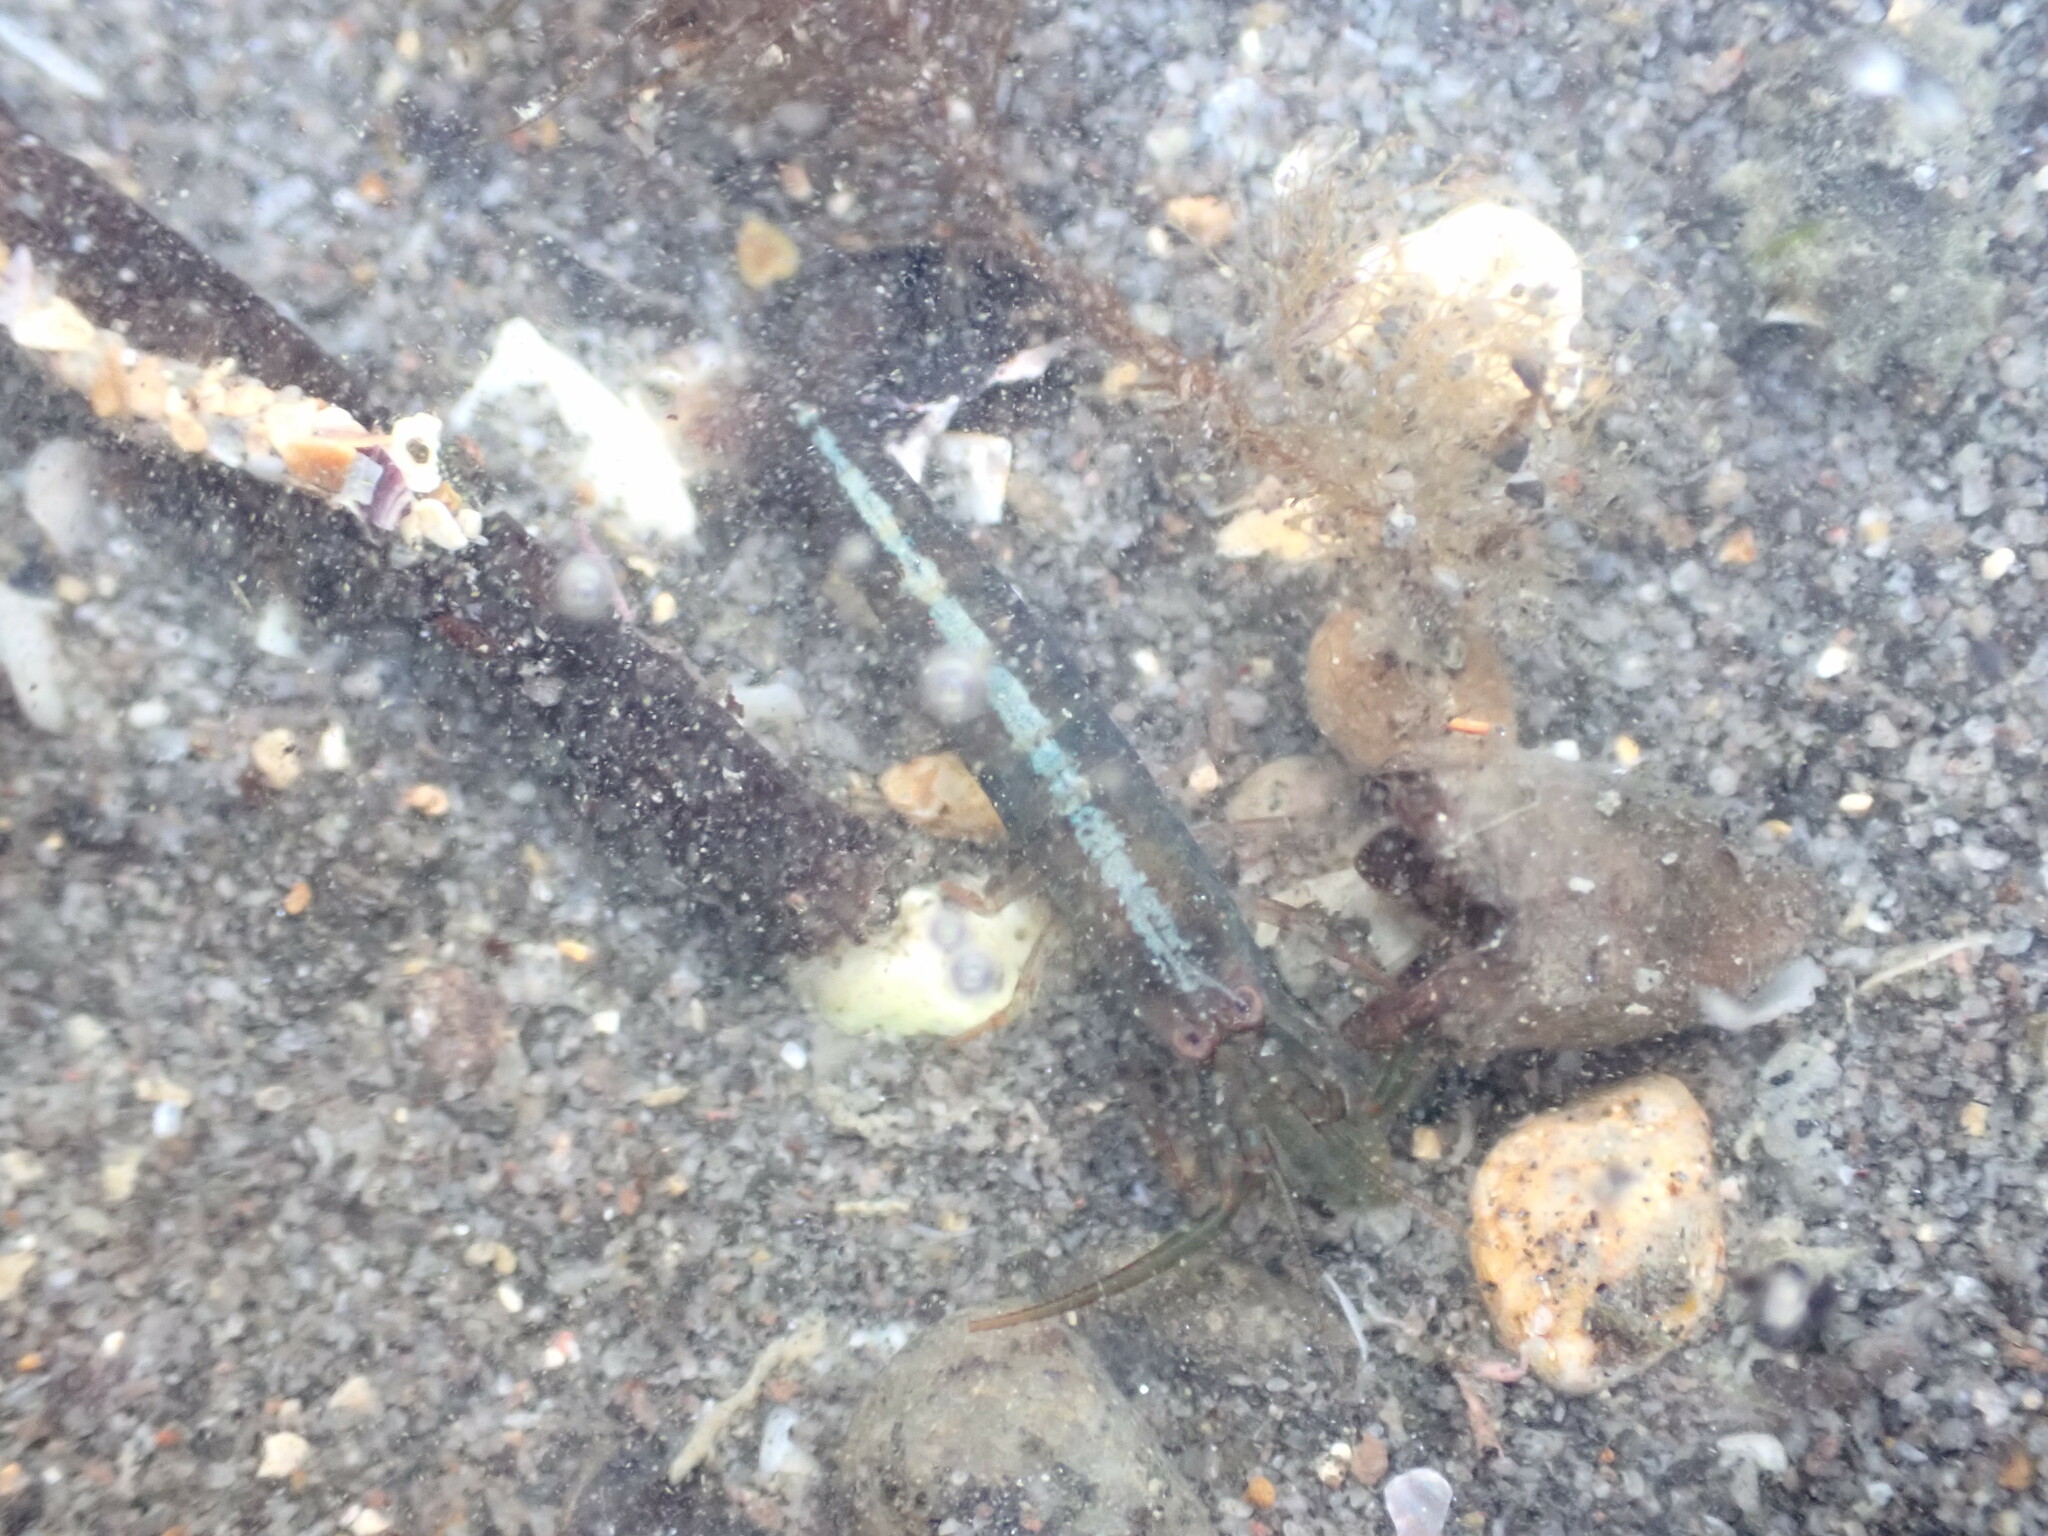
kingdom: Animalia
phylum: Arthropoda
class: Malacostraca
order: Decapoda
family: Alpheidae
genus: Betaeopsis
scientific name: Betaeopsis aequimanus
